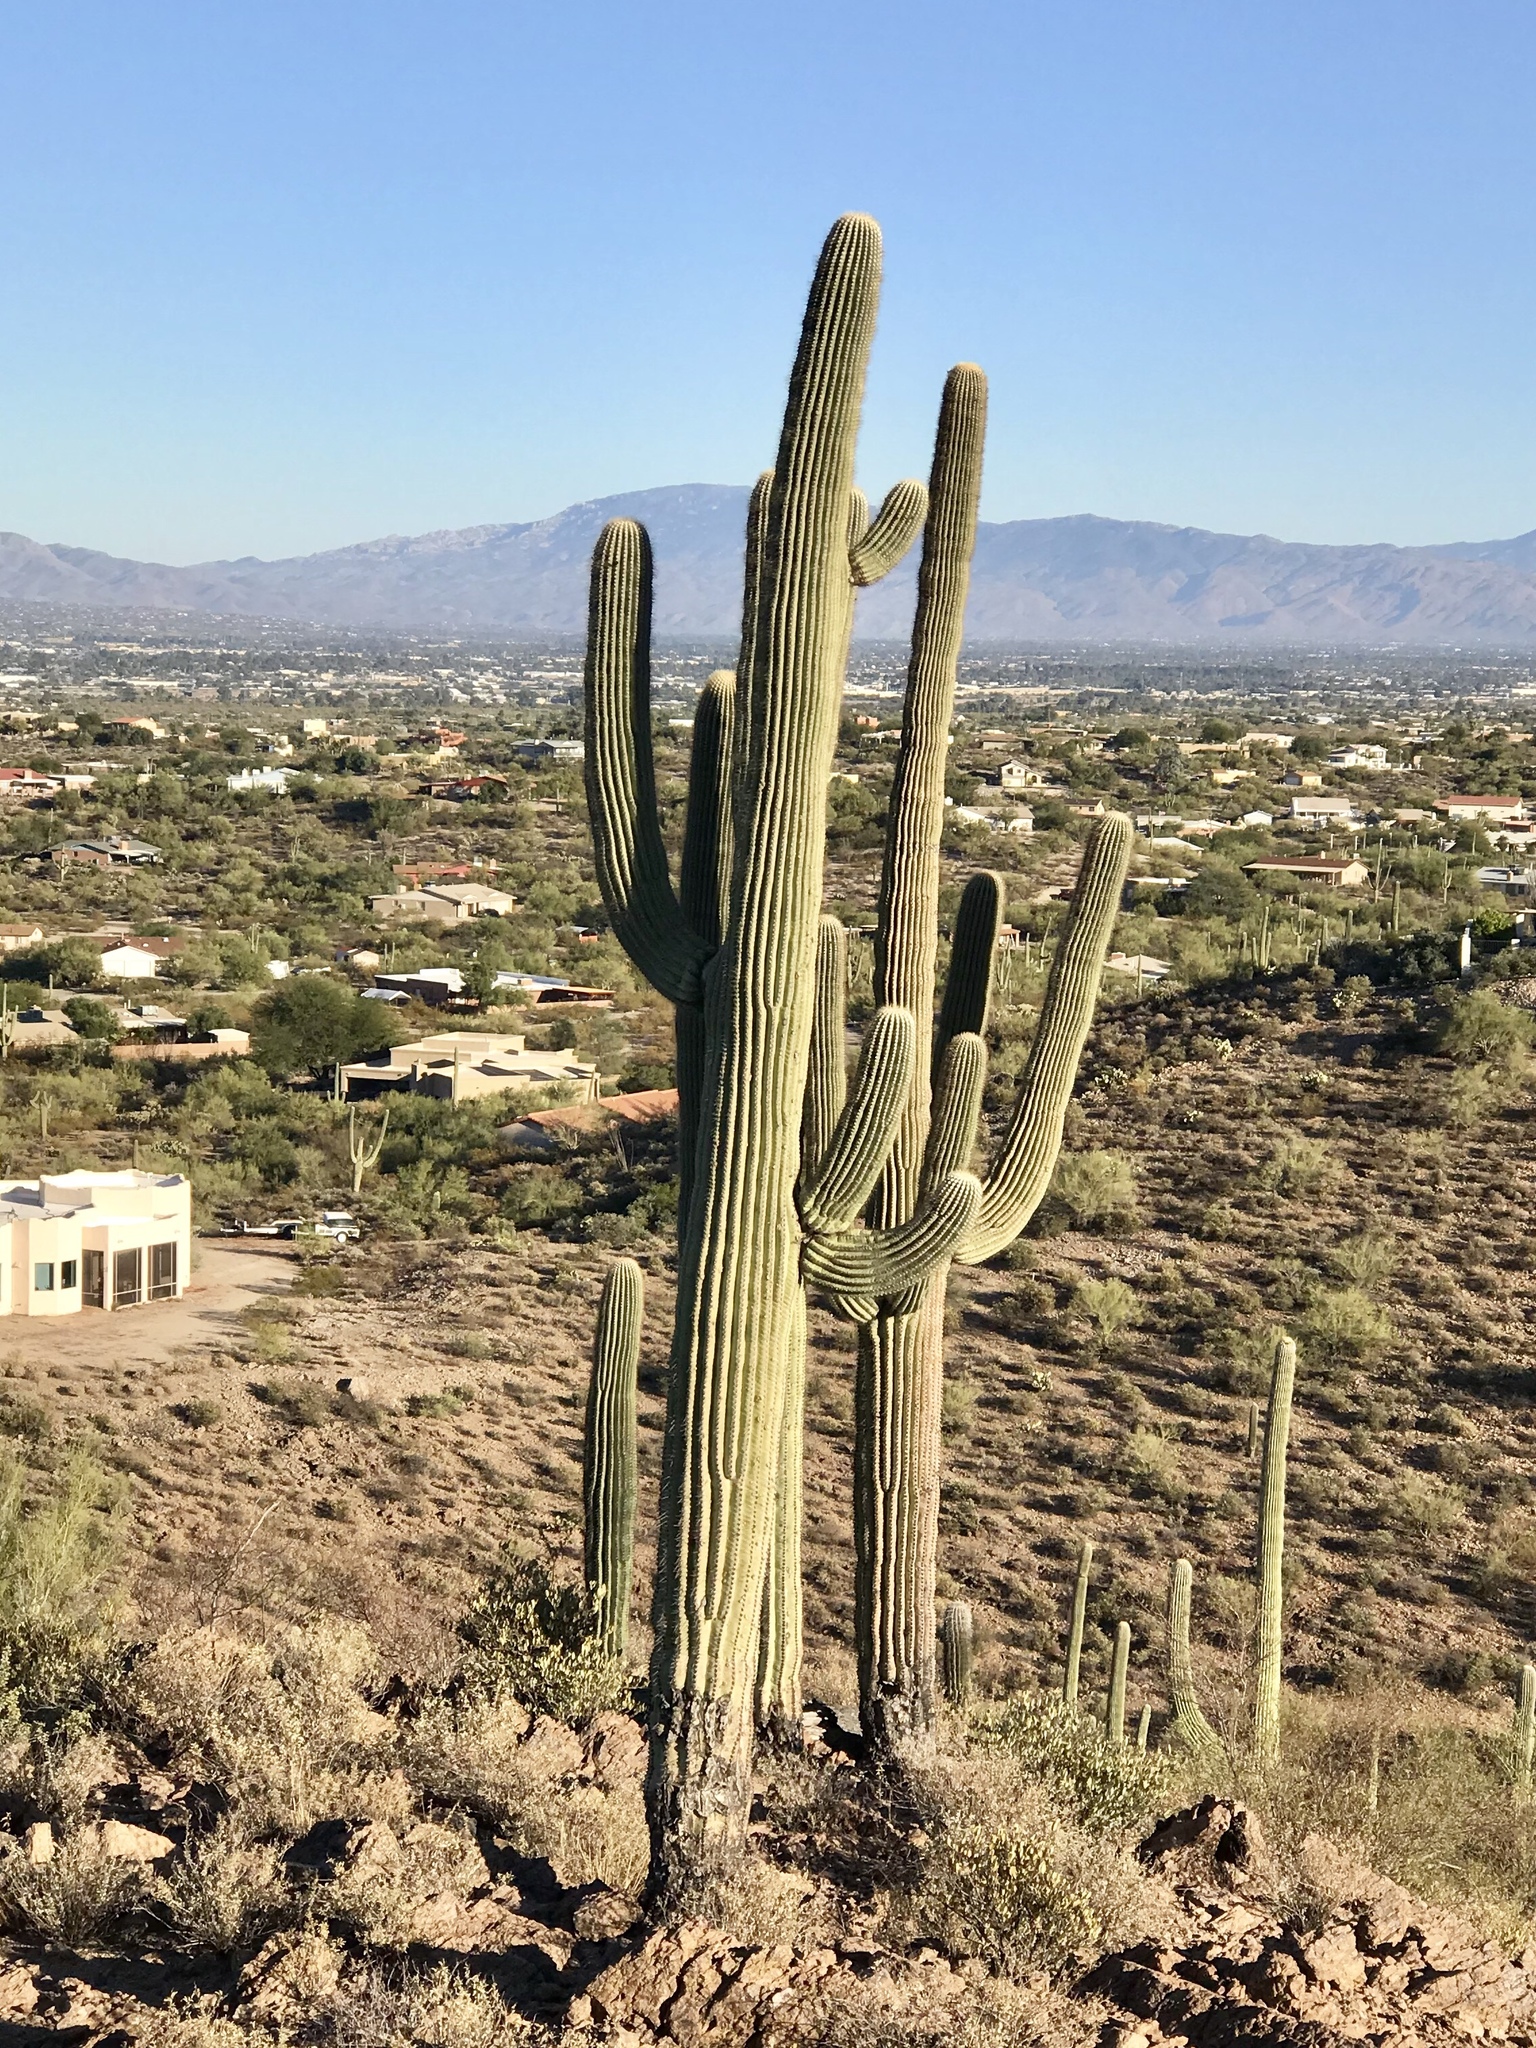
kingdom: Plantae
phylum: Tracheophyta
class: Magnoliopsida
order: Caryophyllales
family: Cactaceae
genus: Carnegiea
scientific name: Carnegiea gigantea
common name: Saguaro
